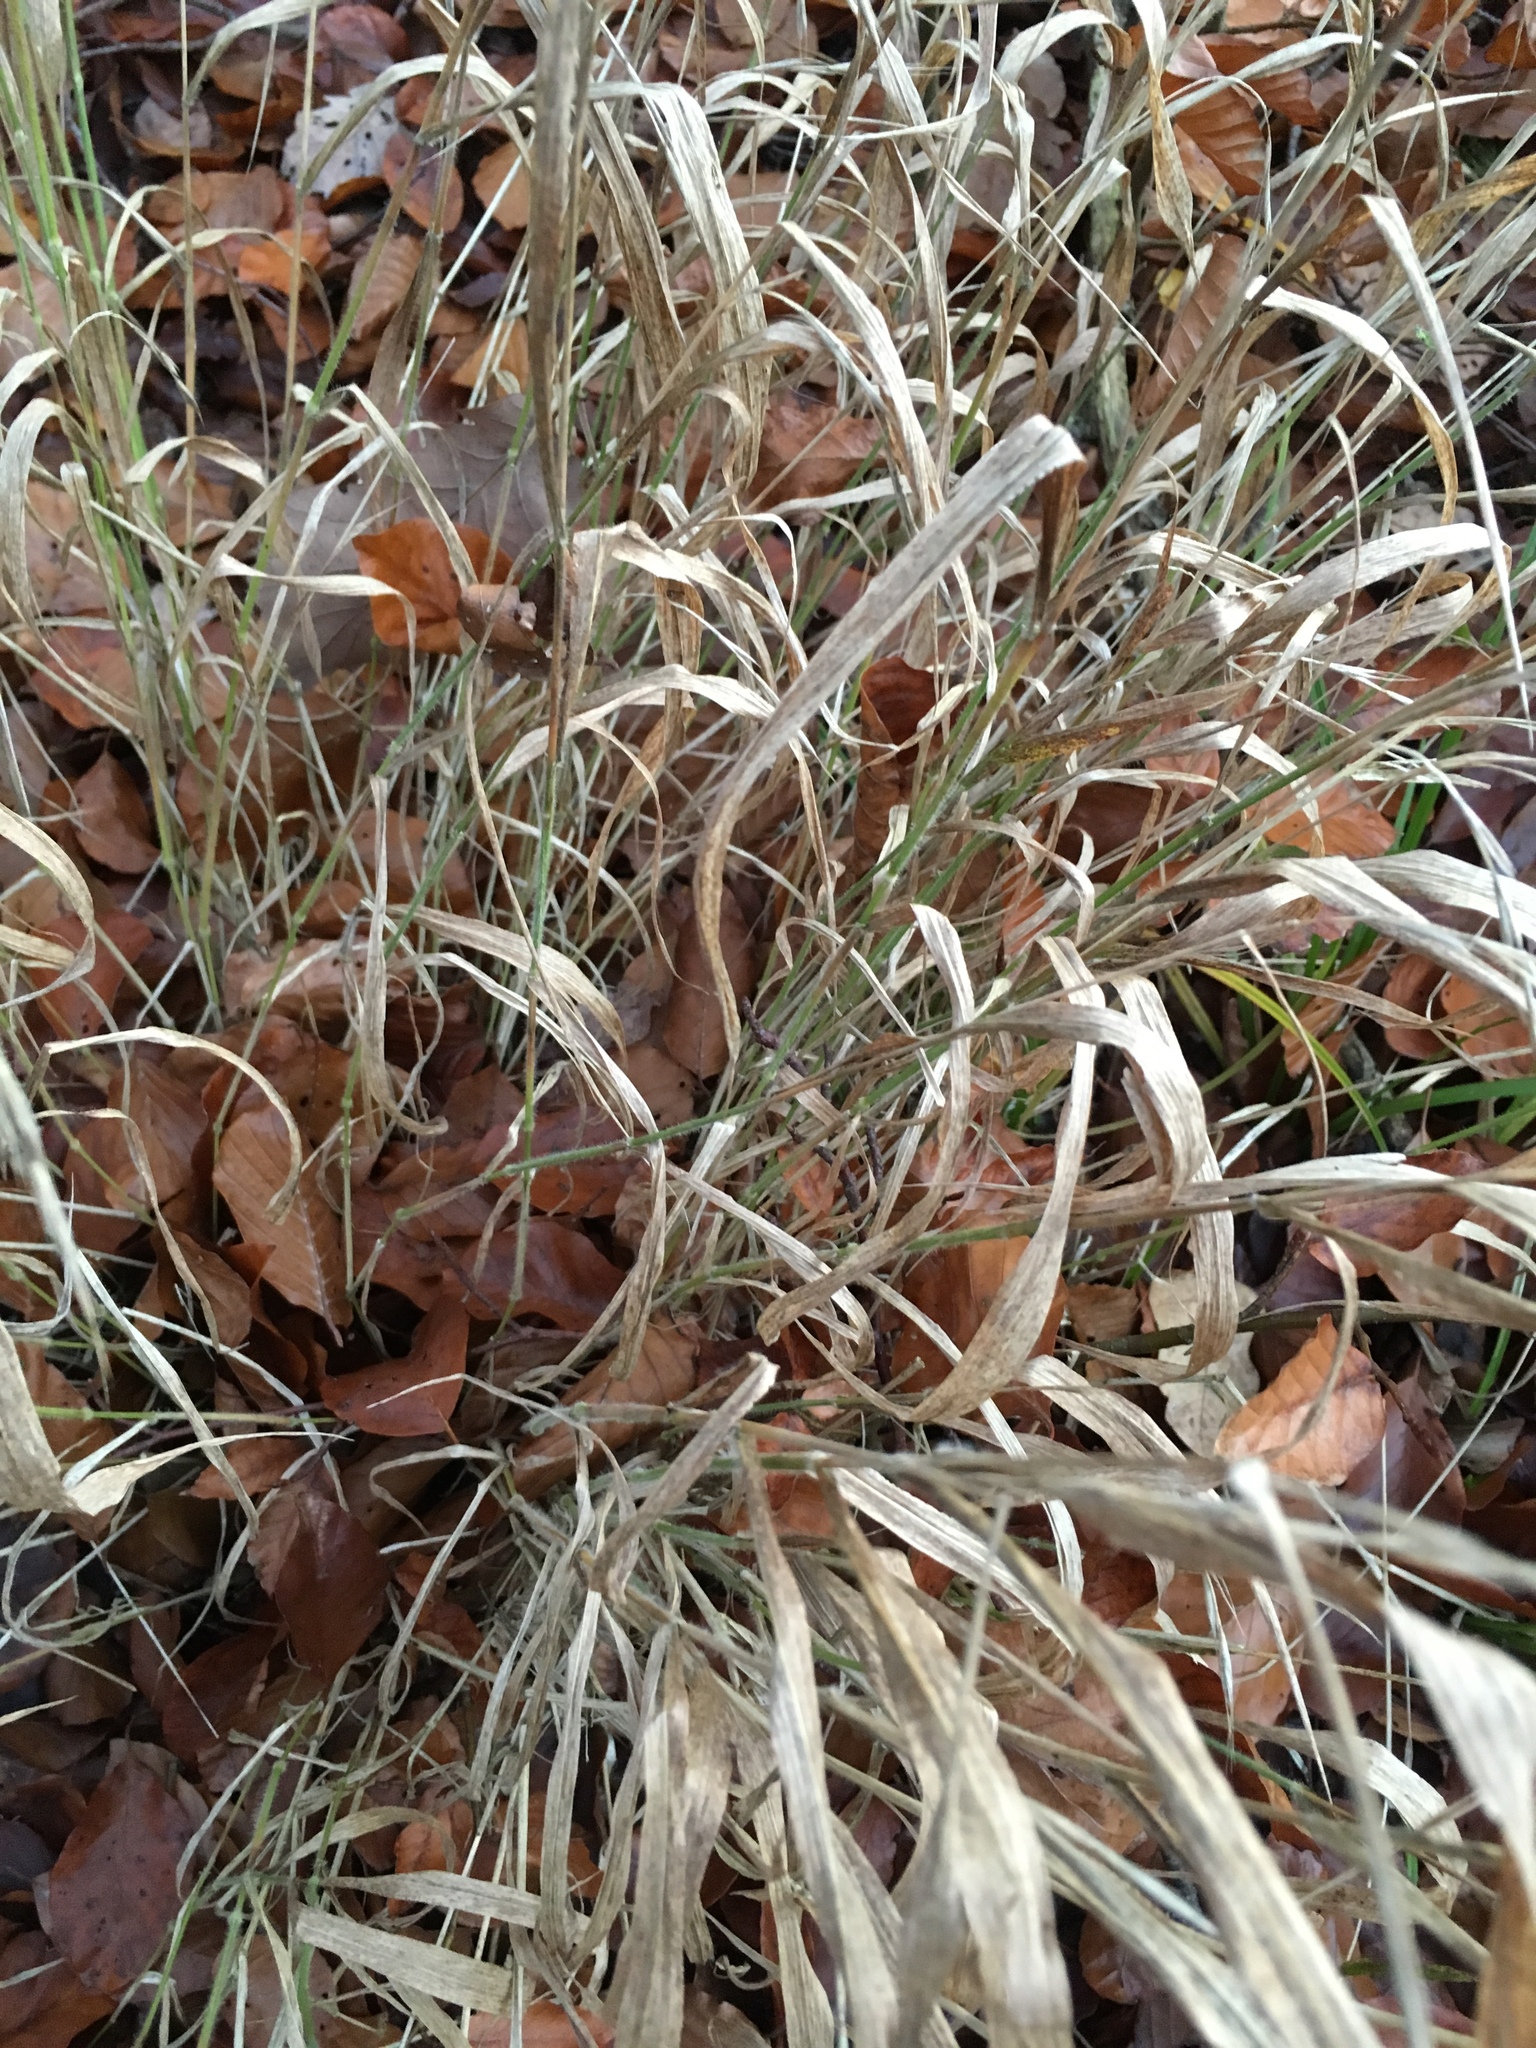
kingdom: Plantae
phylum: Tracheophyta
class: Liliopsida
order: Poales
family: Poaceae
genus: Brachypodium
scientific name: Brachypodium sylvaticum
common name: False-brome
